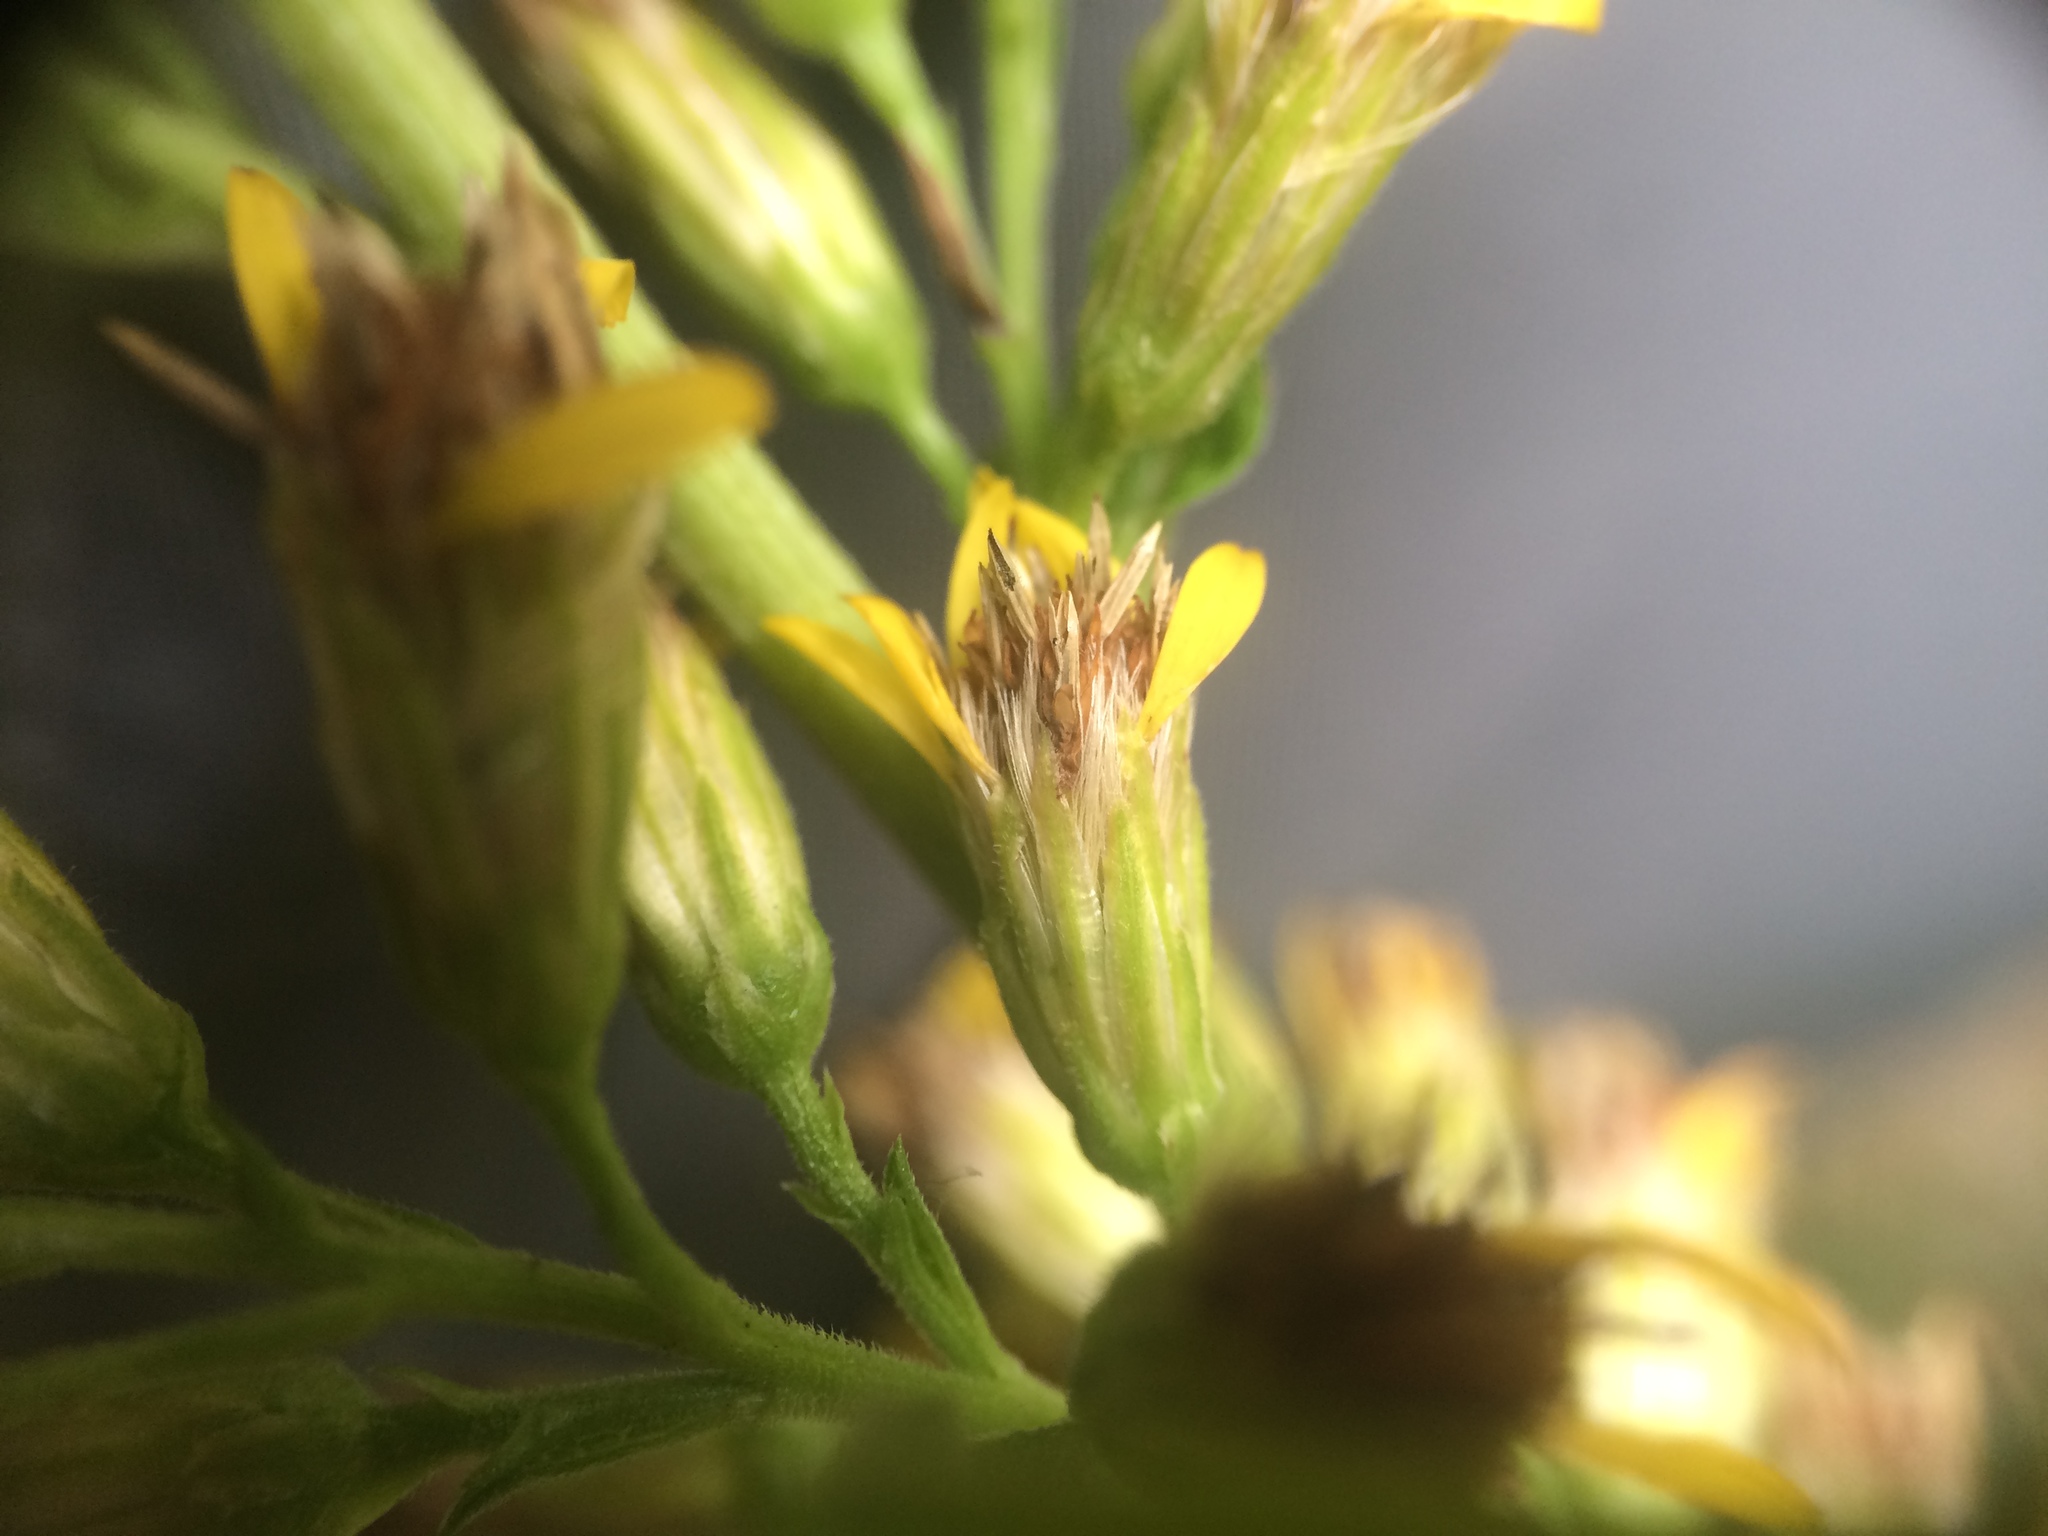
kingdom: Plantae
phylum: Tracheophyta
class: Magnoliopsida
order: Asterales
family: Asteraceae
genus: Solidago
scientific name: Solidago virgaurea
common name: Goldenrod
